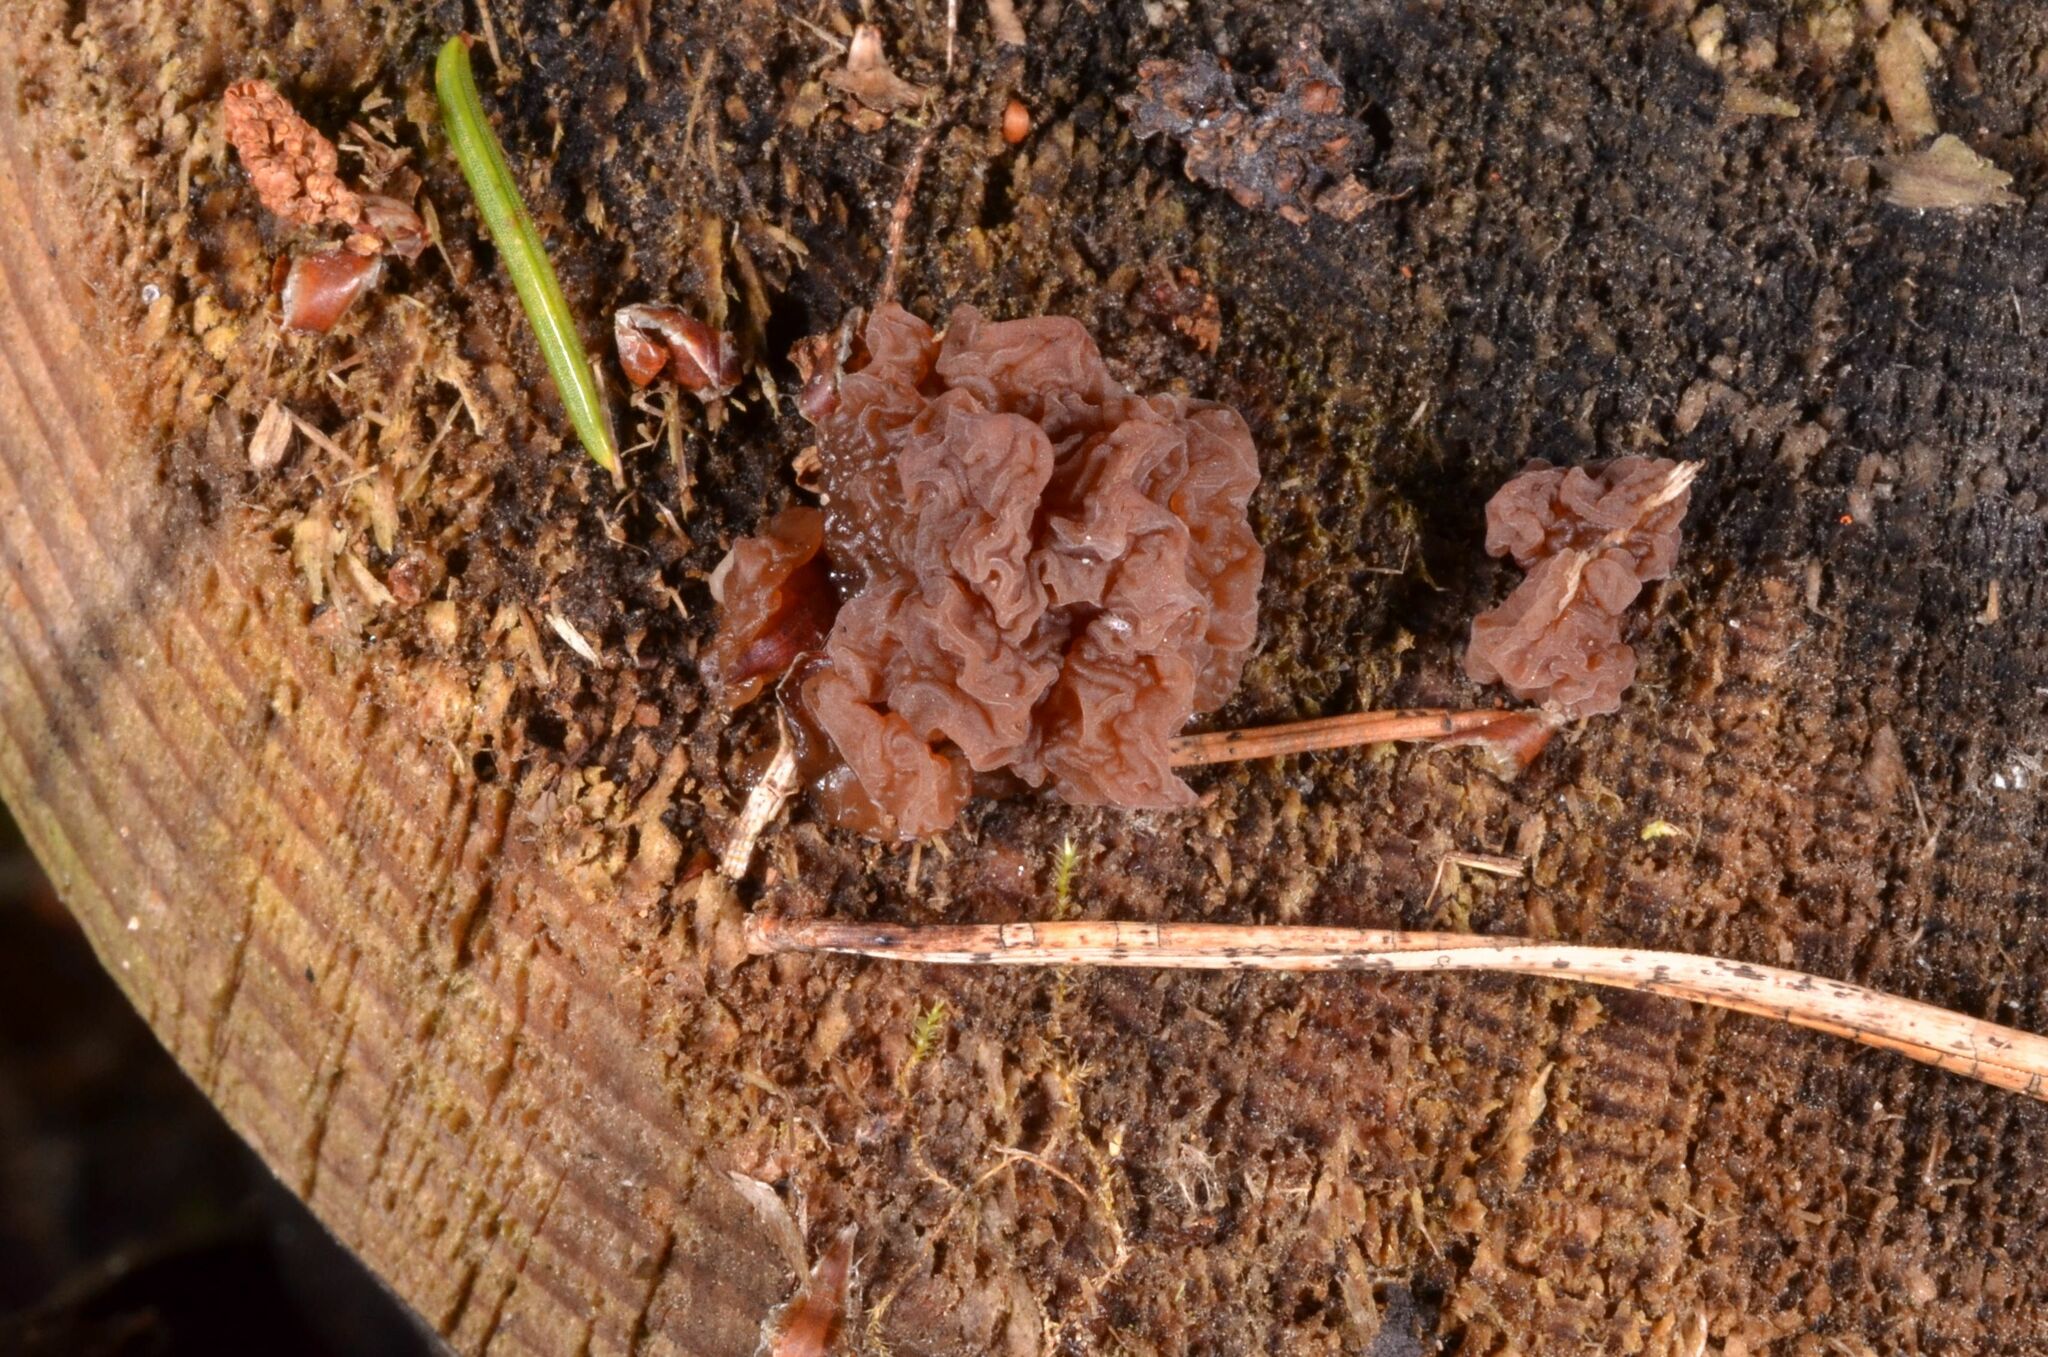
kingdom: Fungi
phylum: Basidiomycota
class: Agaricomycetes
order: Auriculariales
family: Auriculariaceae
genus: Exidia
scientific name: Exidia saccharina
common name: Pine jelly
